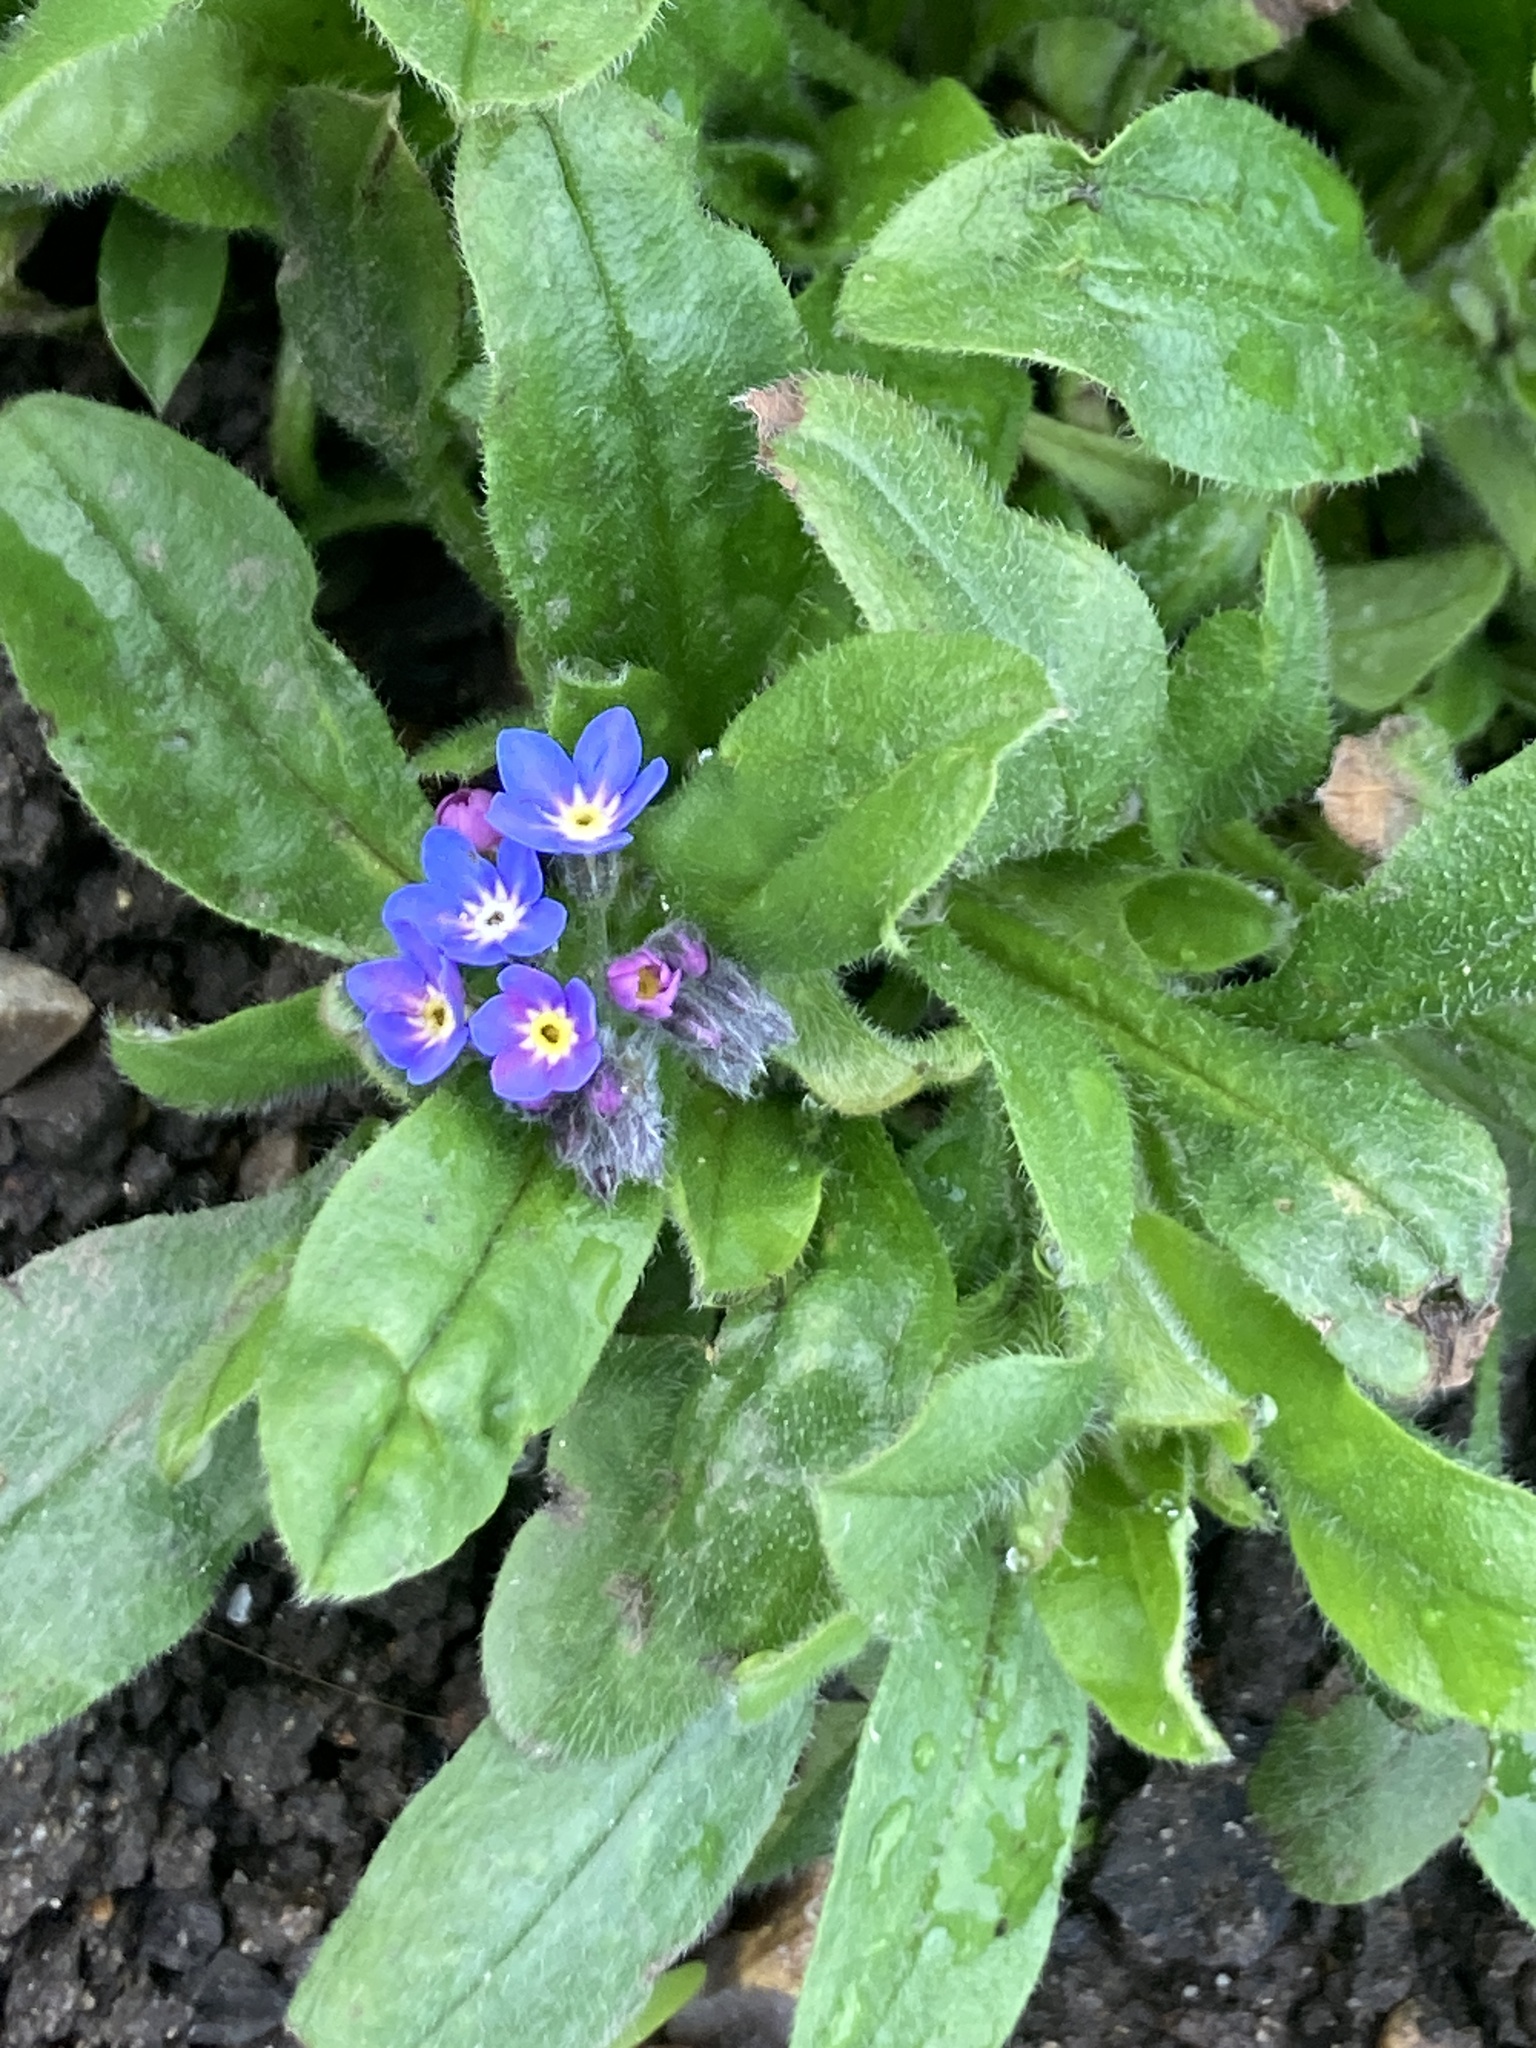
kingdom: Plantae
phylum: Tracheophyta
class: Magnoliopsida
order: Boraginales
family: Boraginaceae
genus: Myosotis
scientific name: Myosotis sylvatica
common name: Wood forget-me-not
